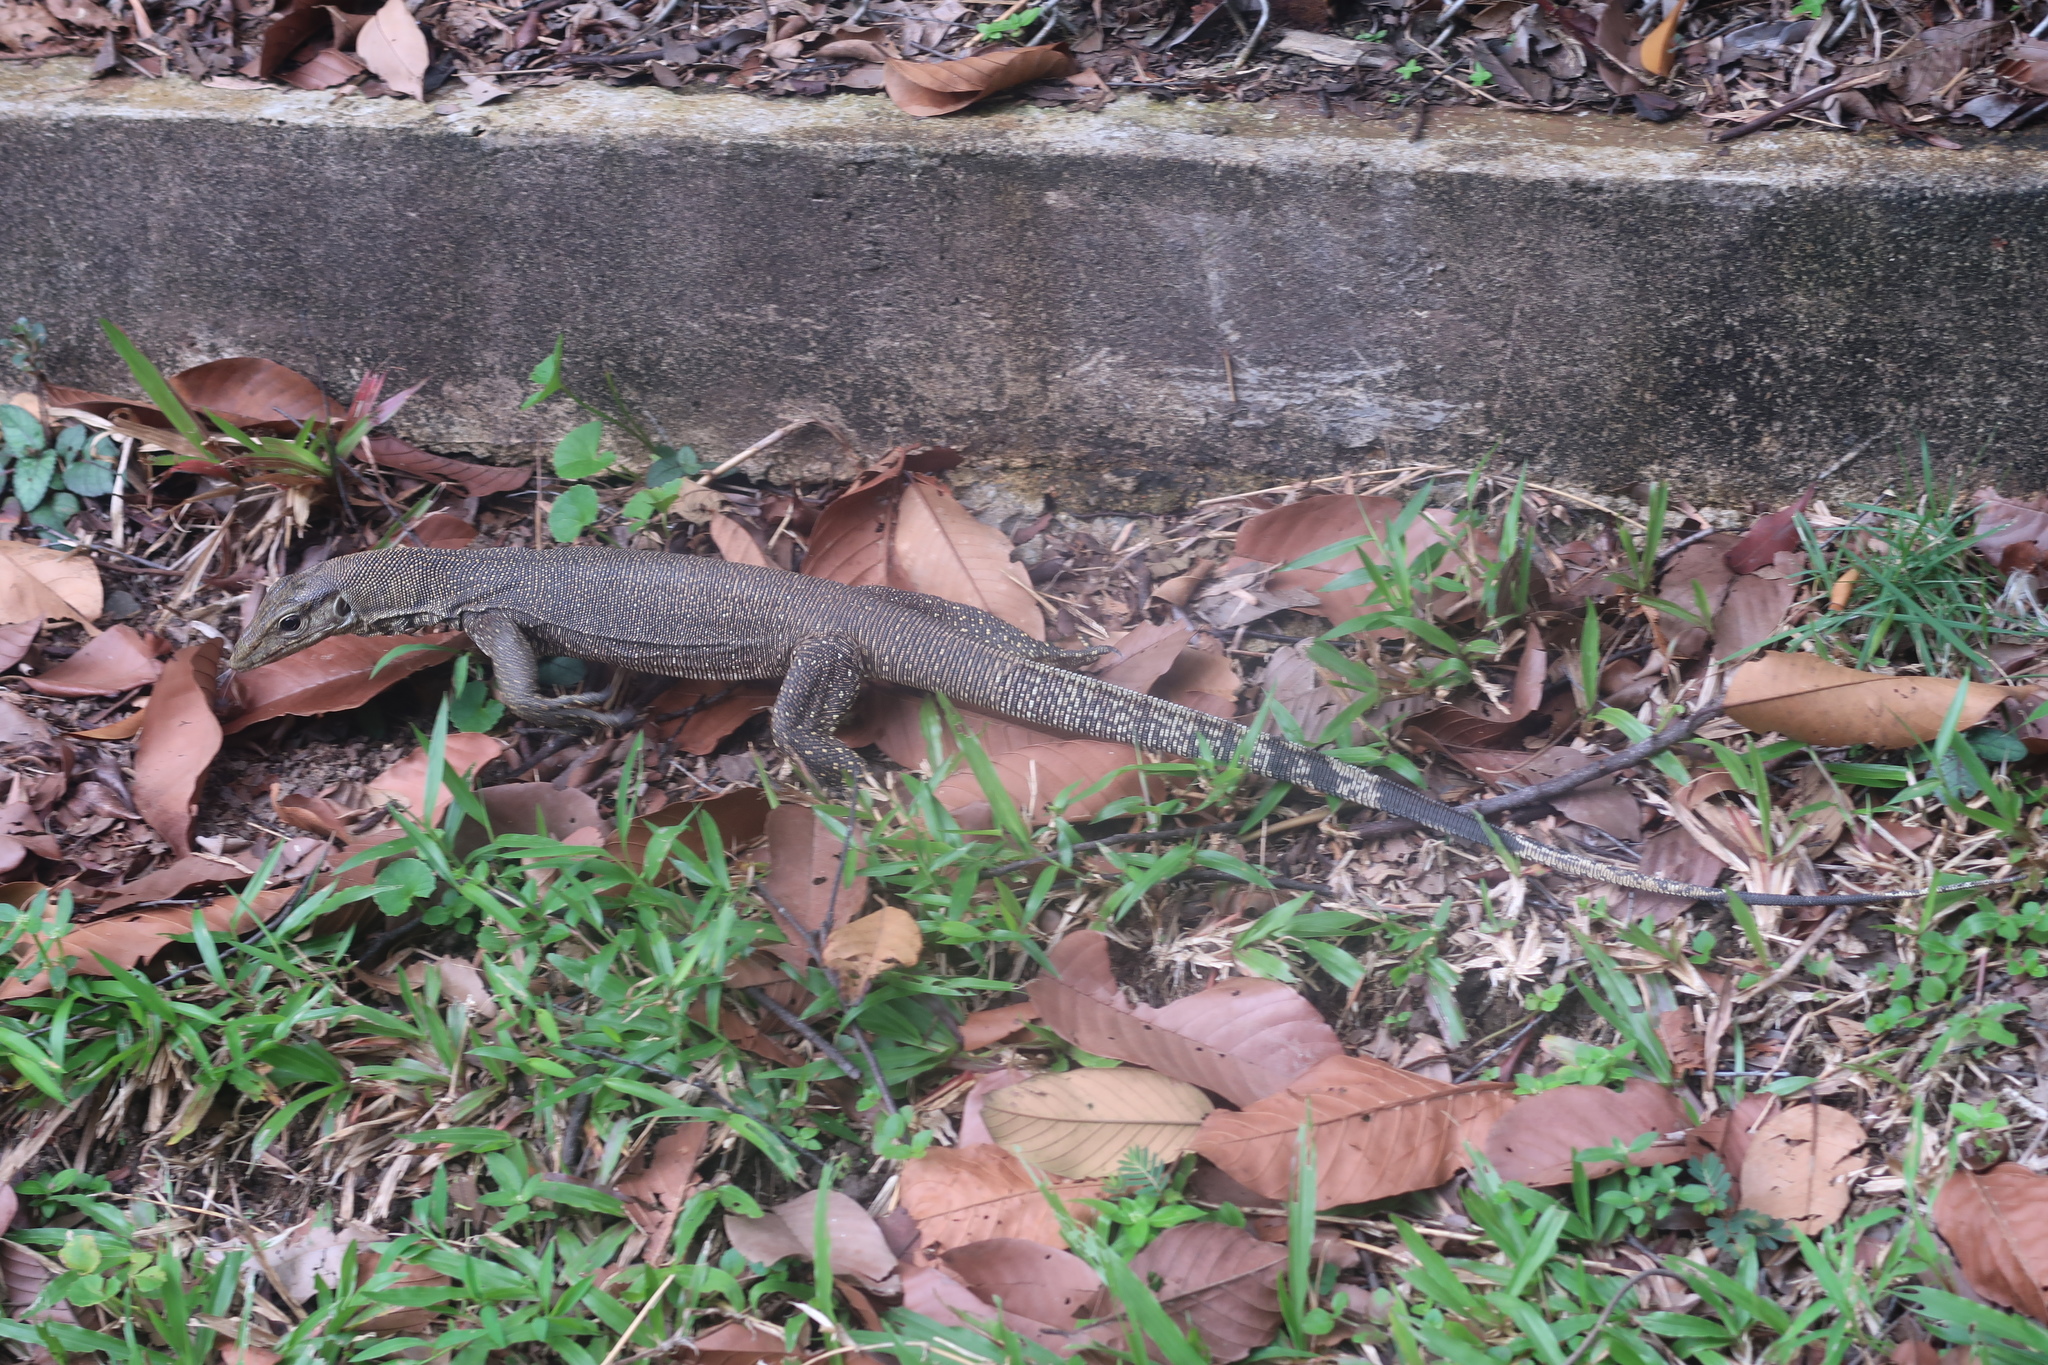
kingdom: Animalia
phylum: Chordata
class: Squamata
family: Varanidae
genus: Varanus
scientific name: Varanus nebulosus
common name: Clouded monitor
